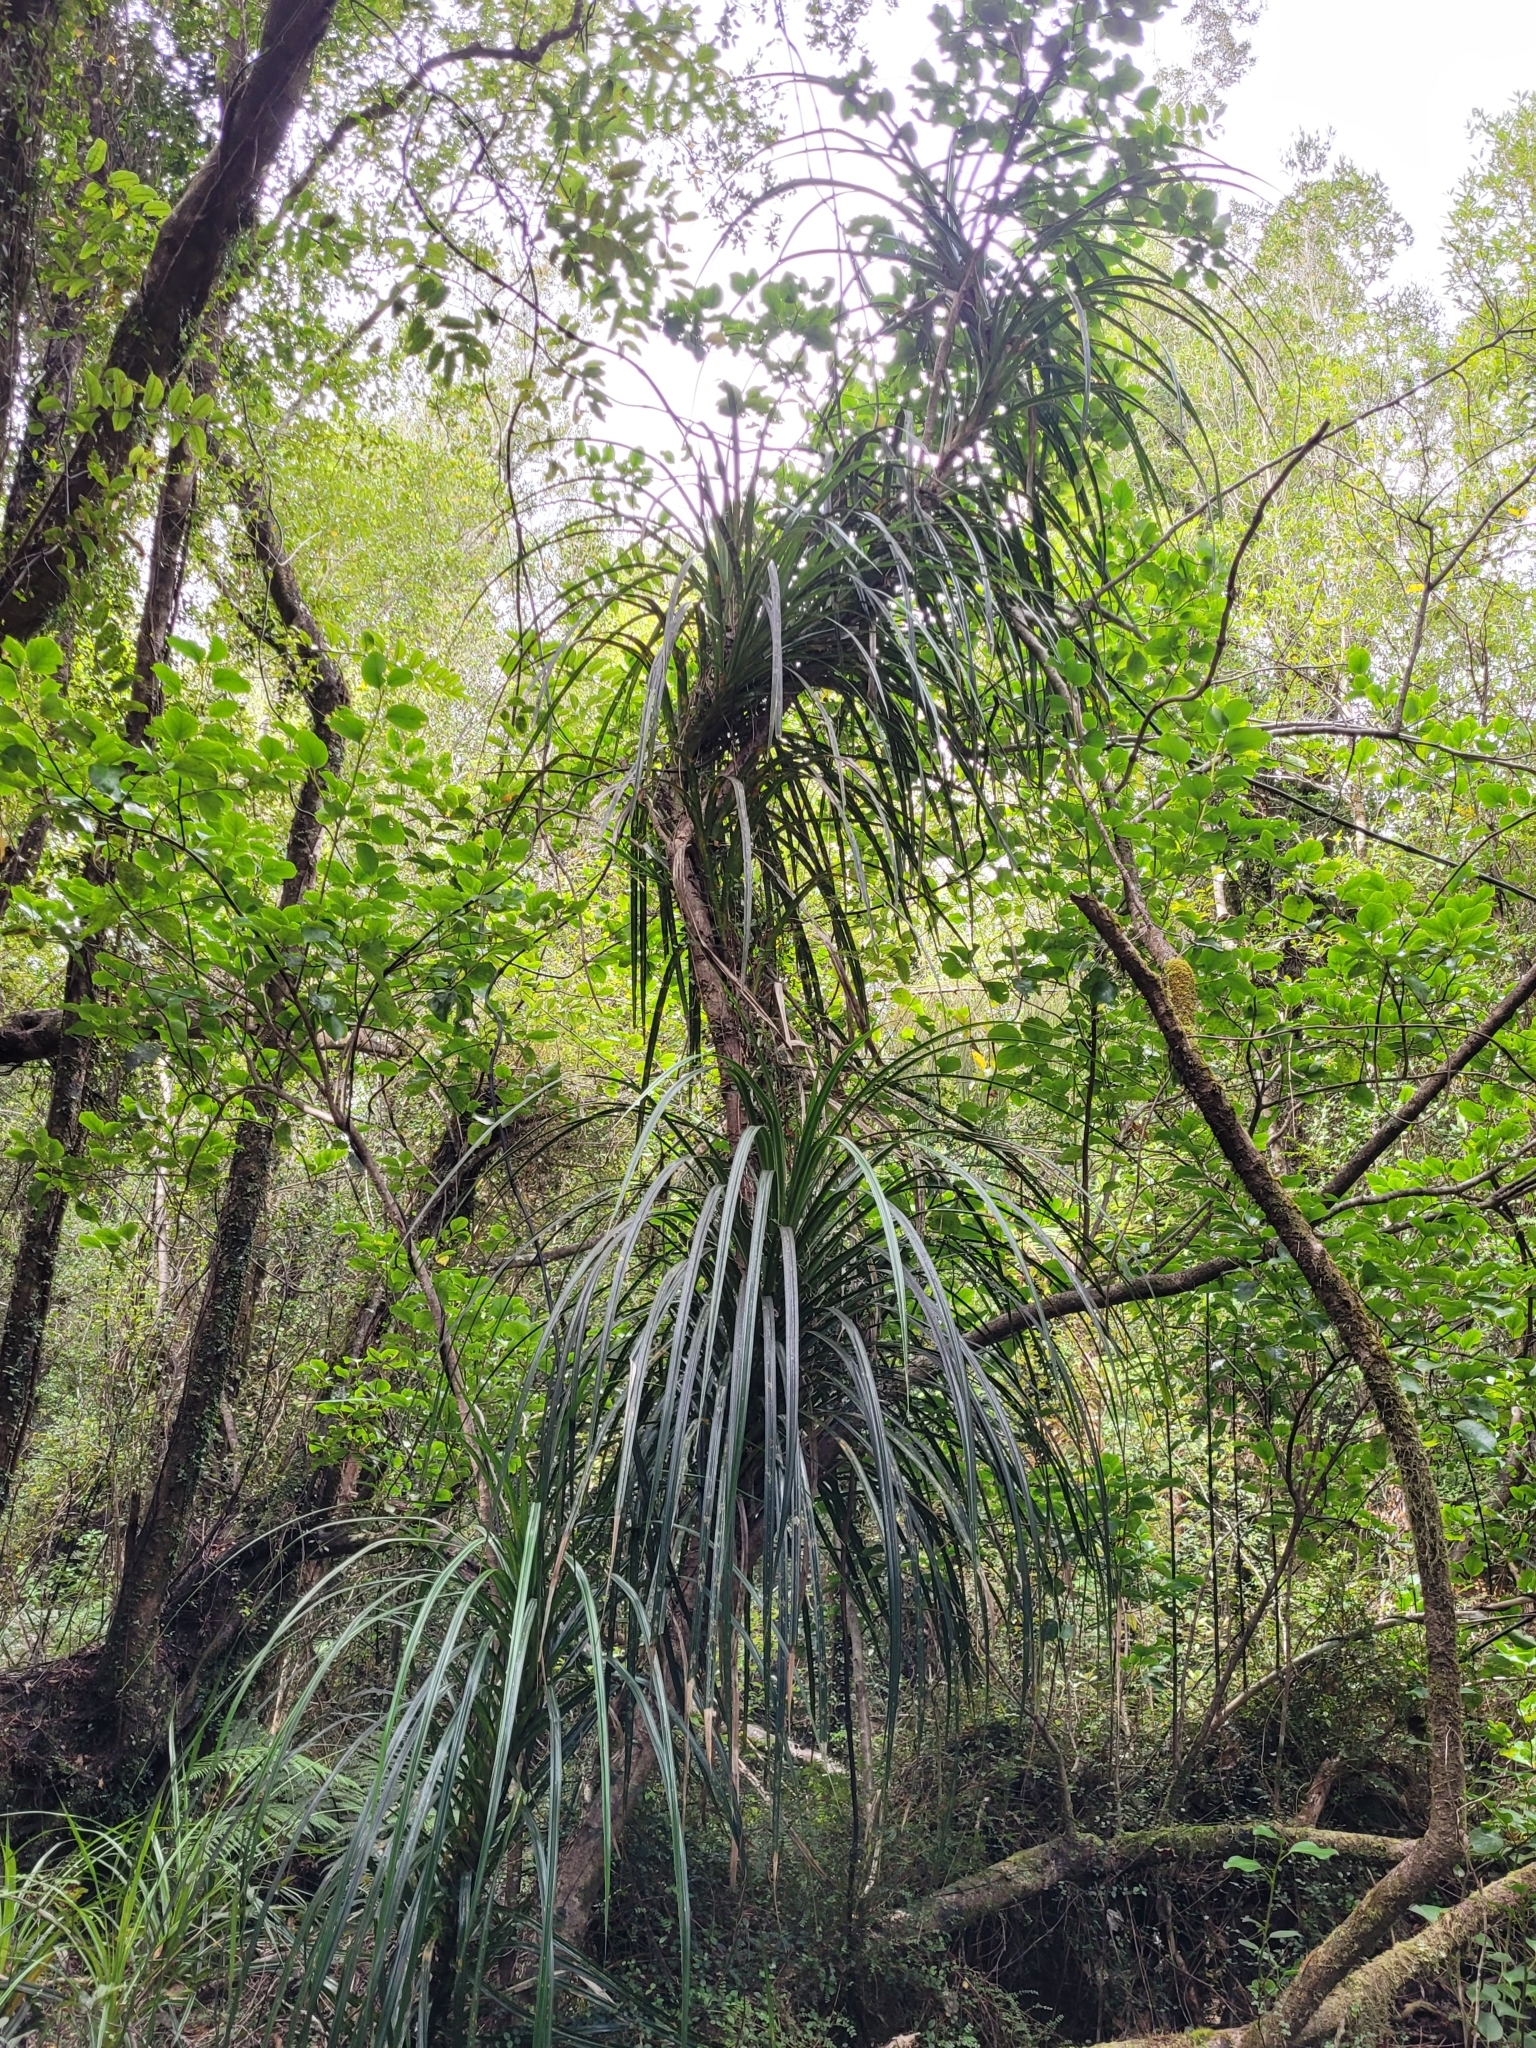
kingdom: Plantae
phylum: Tracheophyta
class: Liliopsida
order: Pandanales
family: Pandanaceae
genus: Freycinetia
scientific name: Freycinetia banksii
